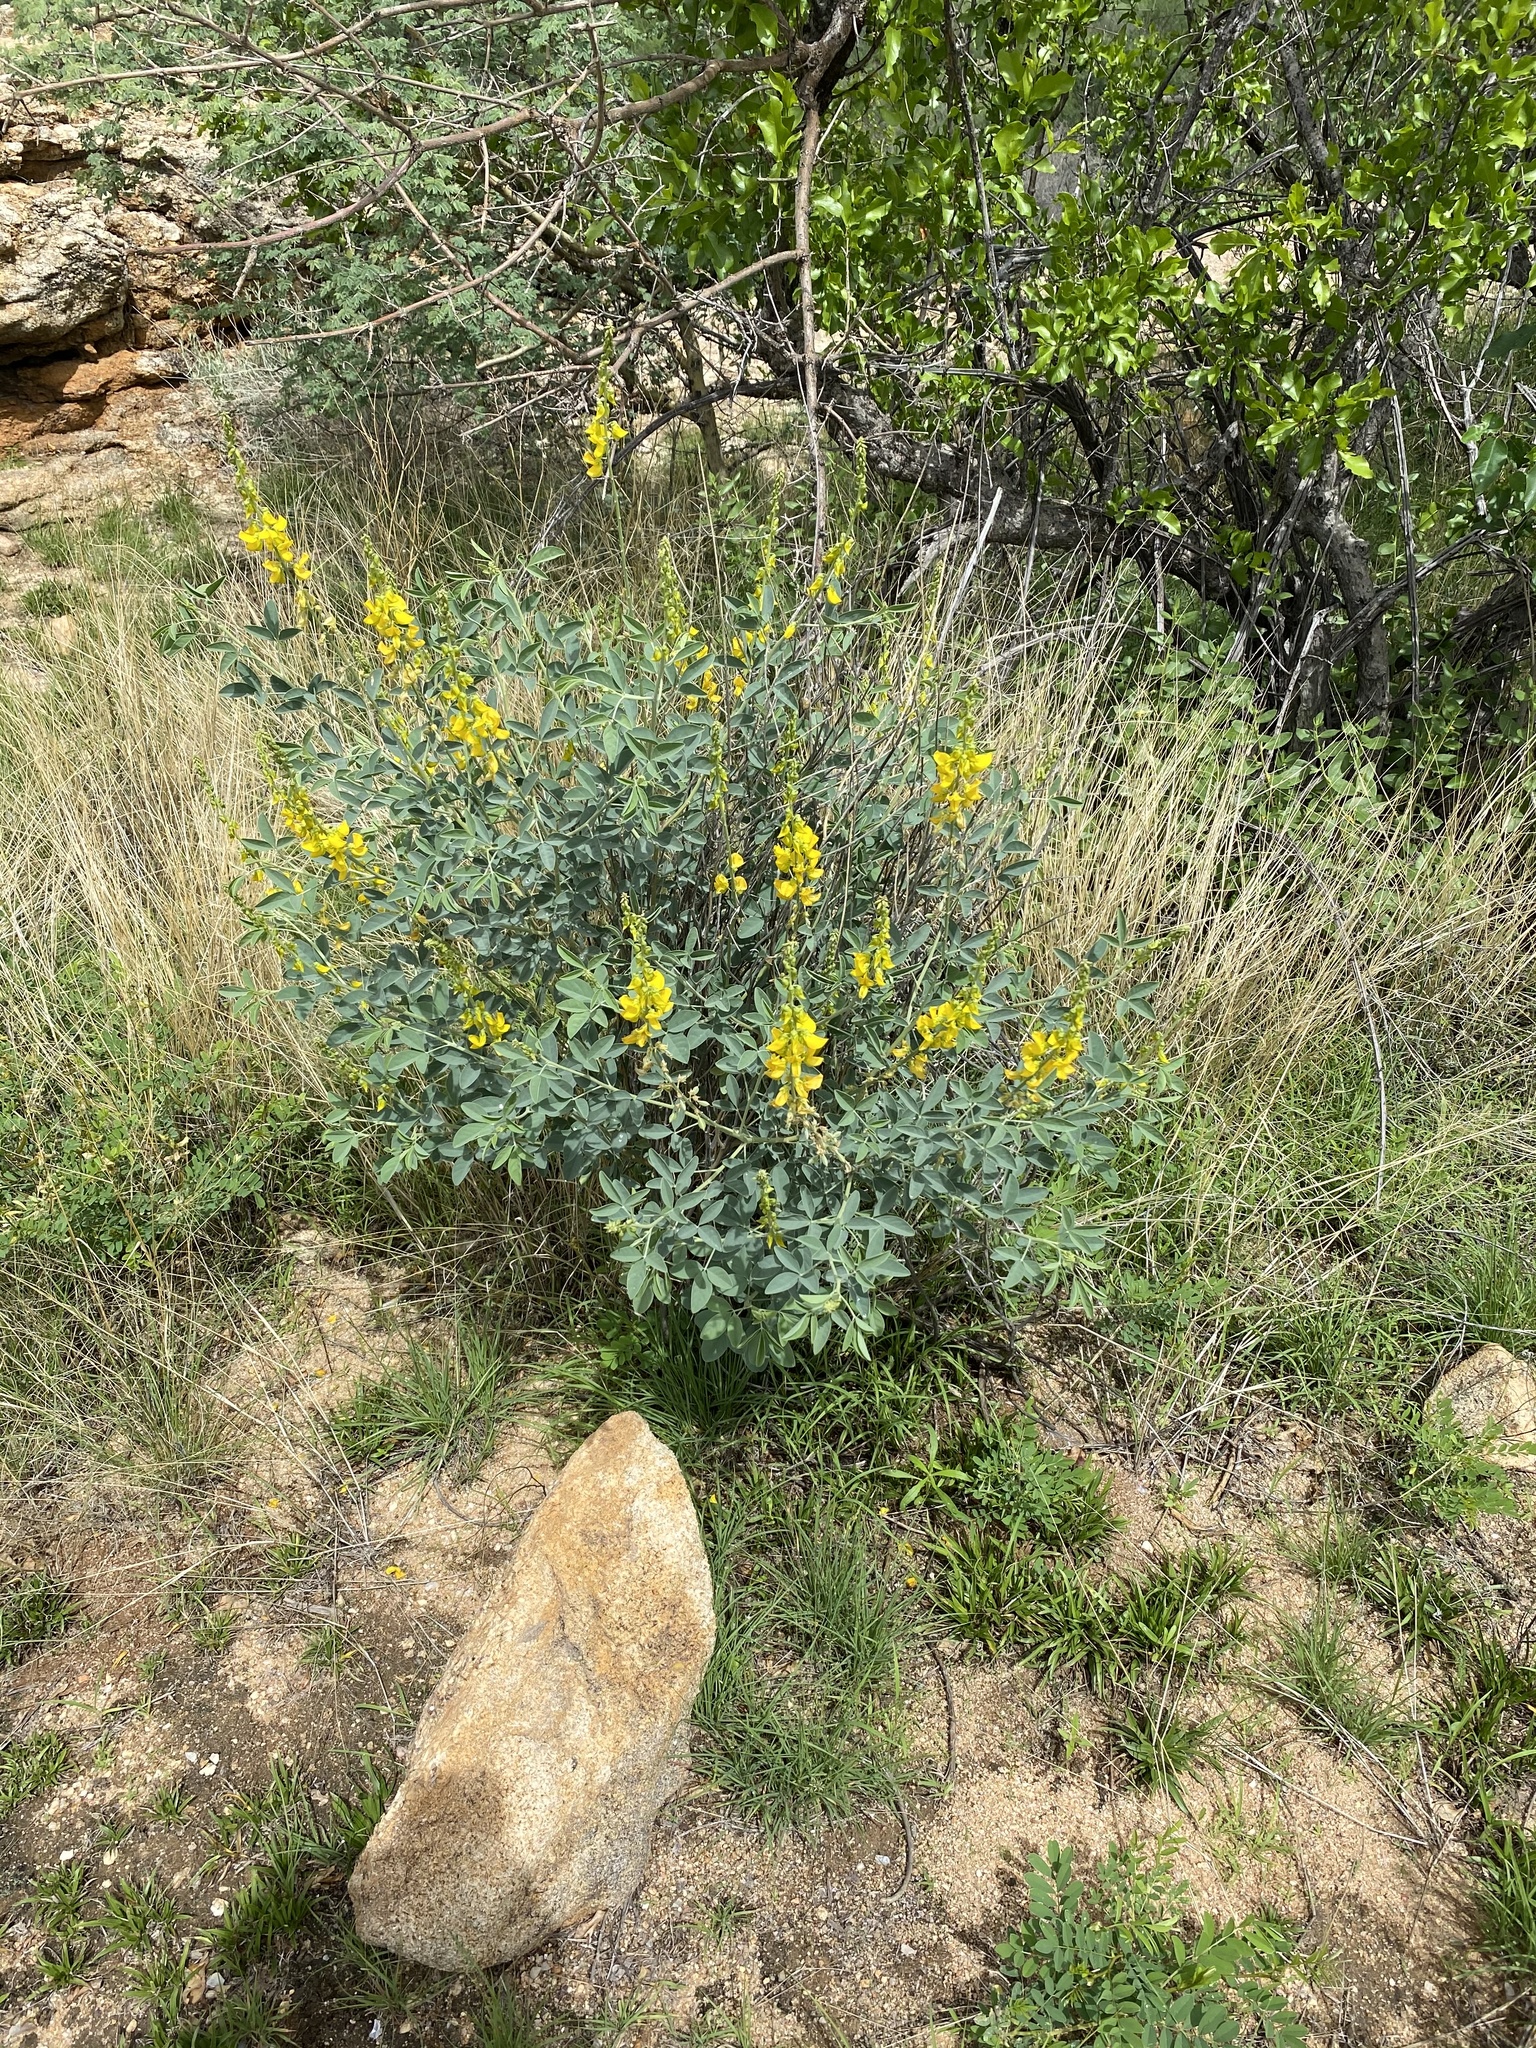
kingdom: Plantae
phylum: Tracheophyta
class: Magnoliopsida
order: Fabales
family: Fabaceae
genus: Crotalaria
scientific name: Crotalaria argyraea
